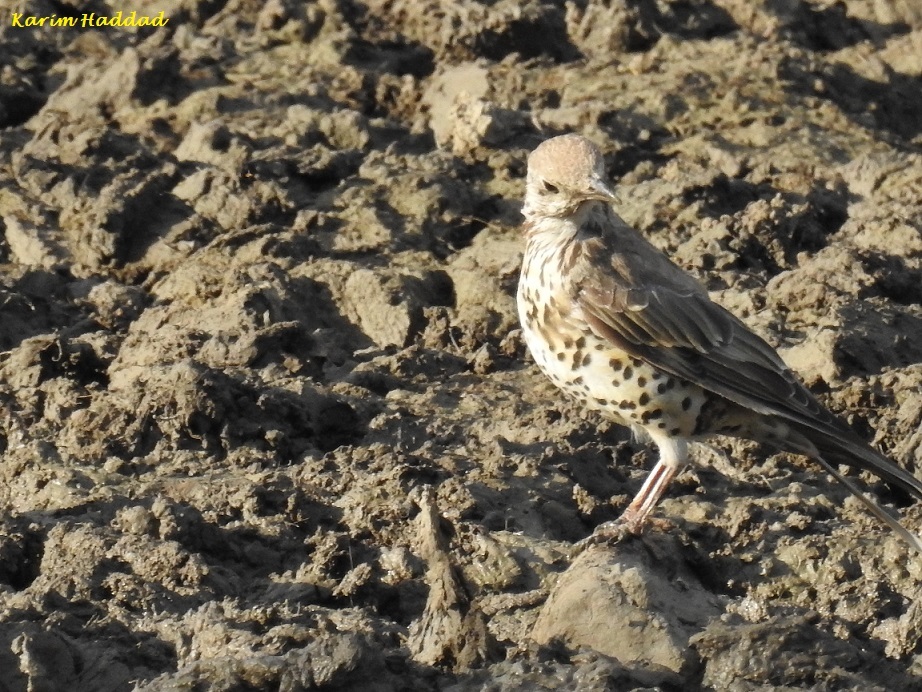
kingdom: Animalia
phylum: Chordata
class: Aves
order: Passeriformes
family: Turdidae
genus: Turdus
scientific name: Turdus viscivorus
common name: Mistle thrush
